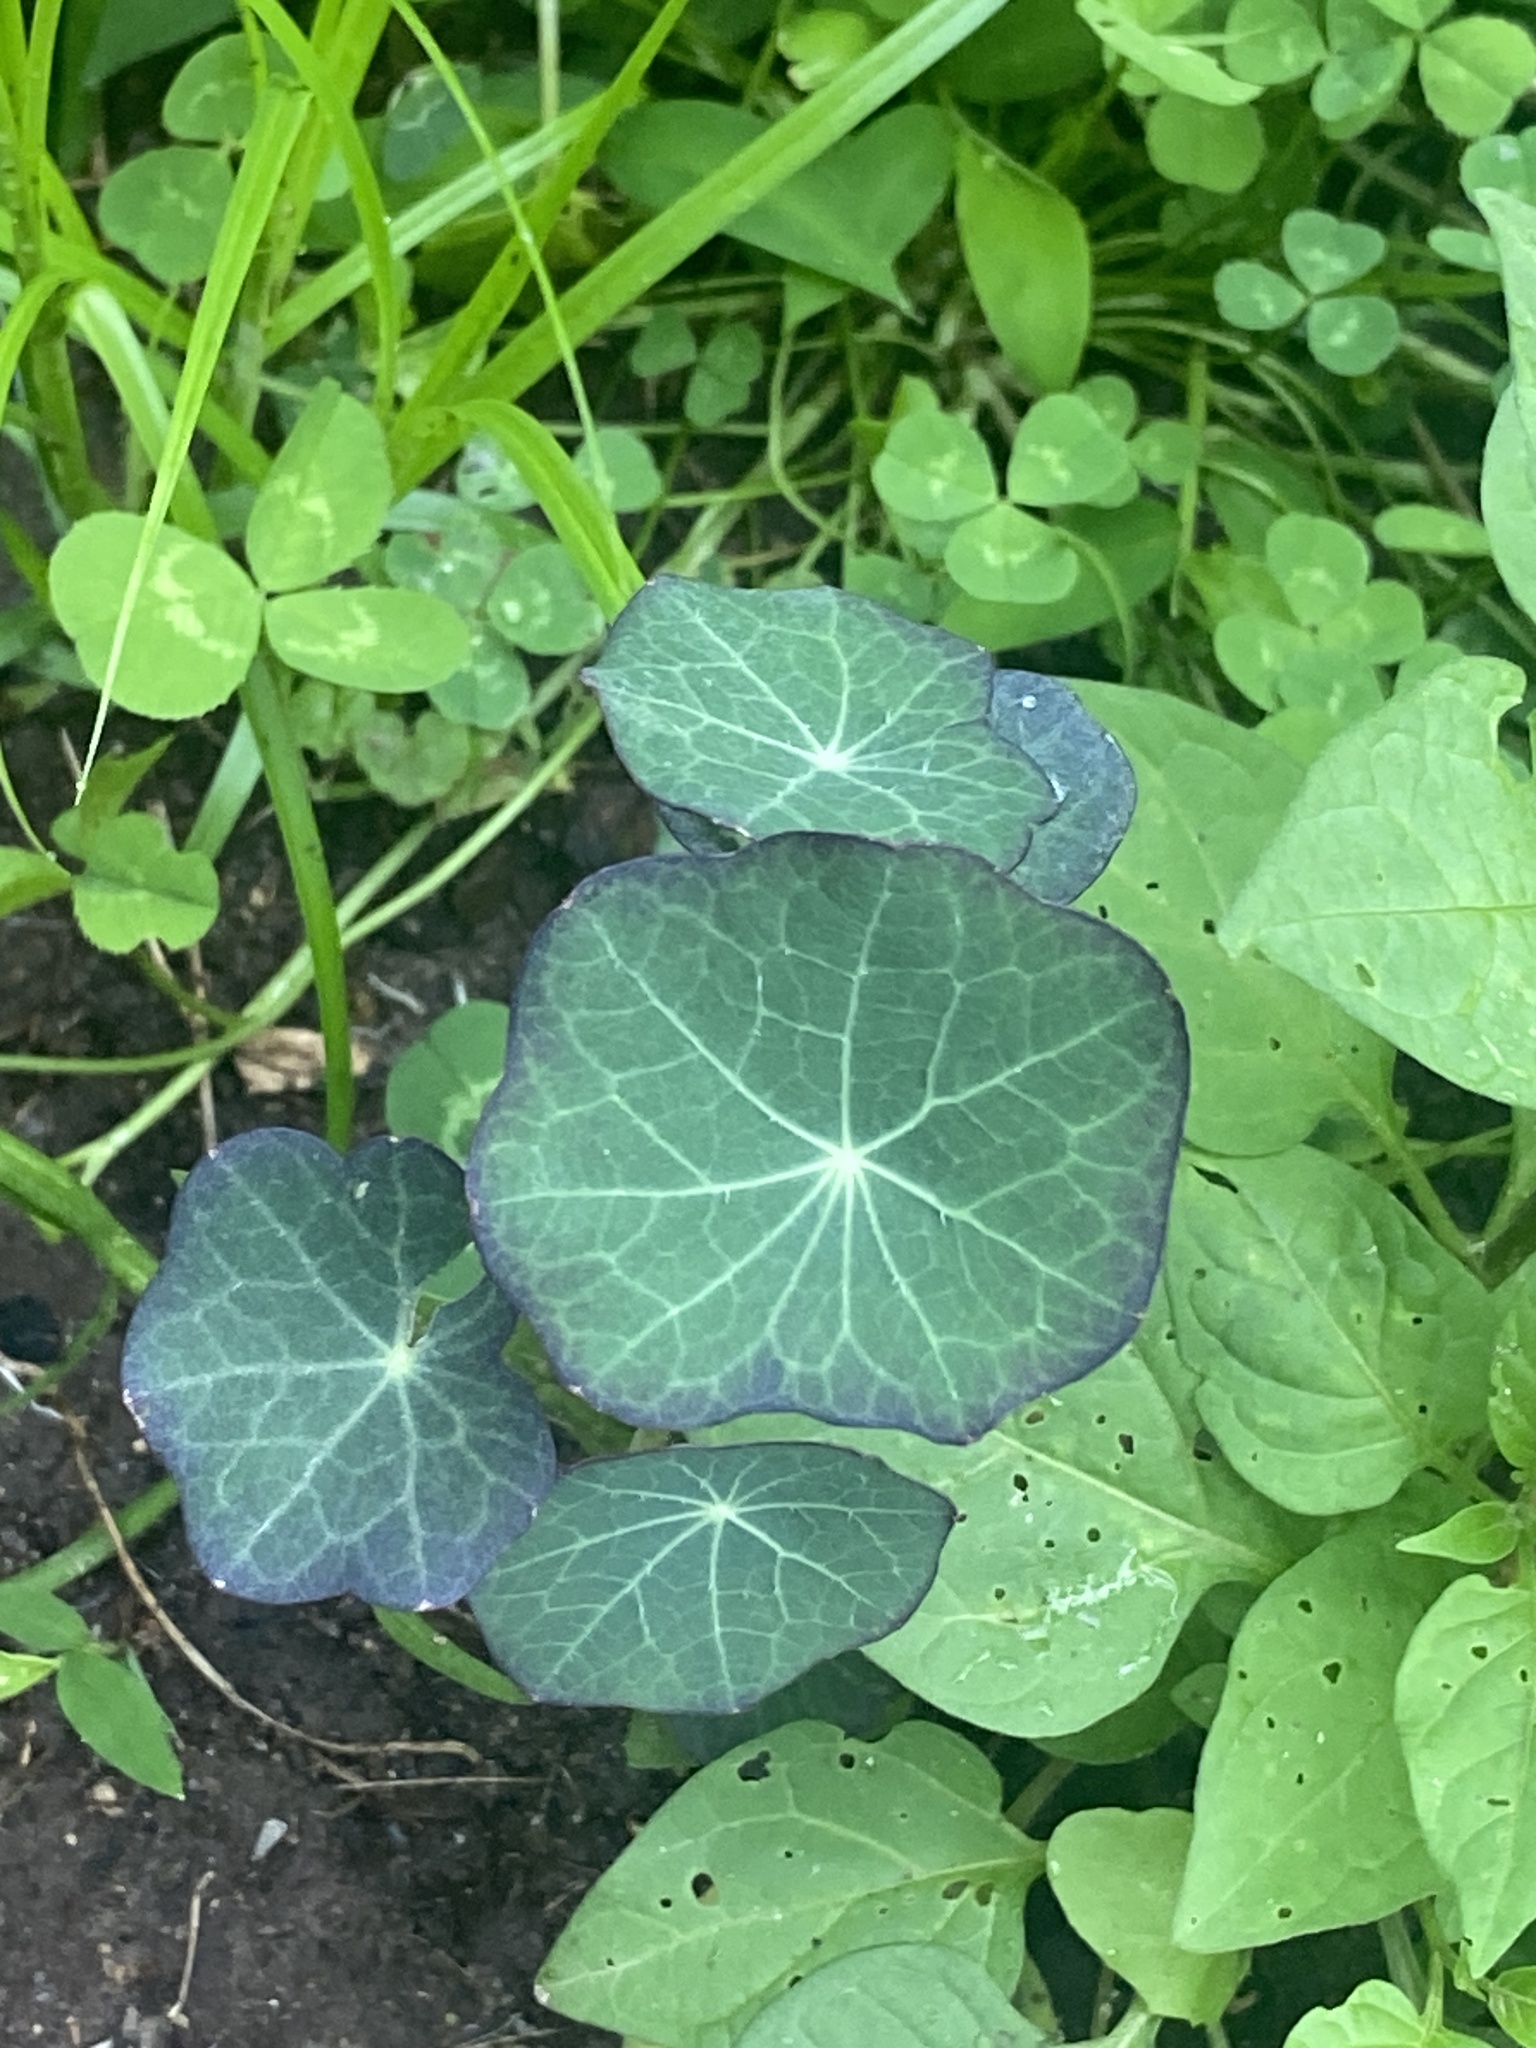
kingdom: Plantae
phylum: Tracheophyta
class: Magnoliopsida
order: Brassicales
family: Tropaeolaceae
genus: Tropaeolum
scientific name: Tropaeolum majus
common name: Nasturtium
